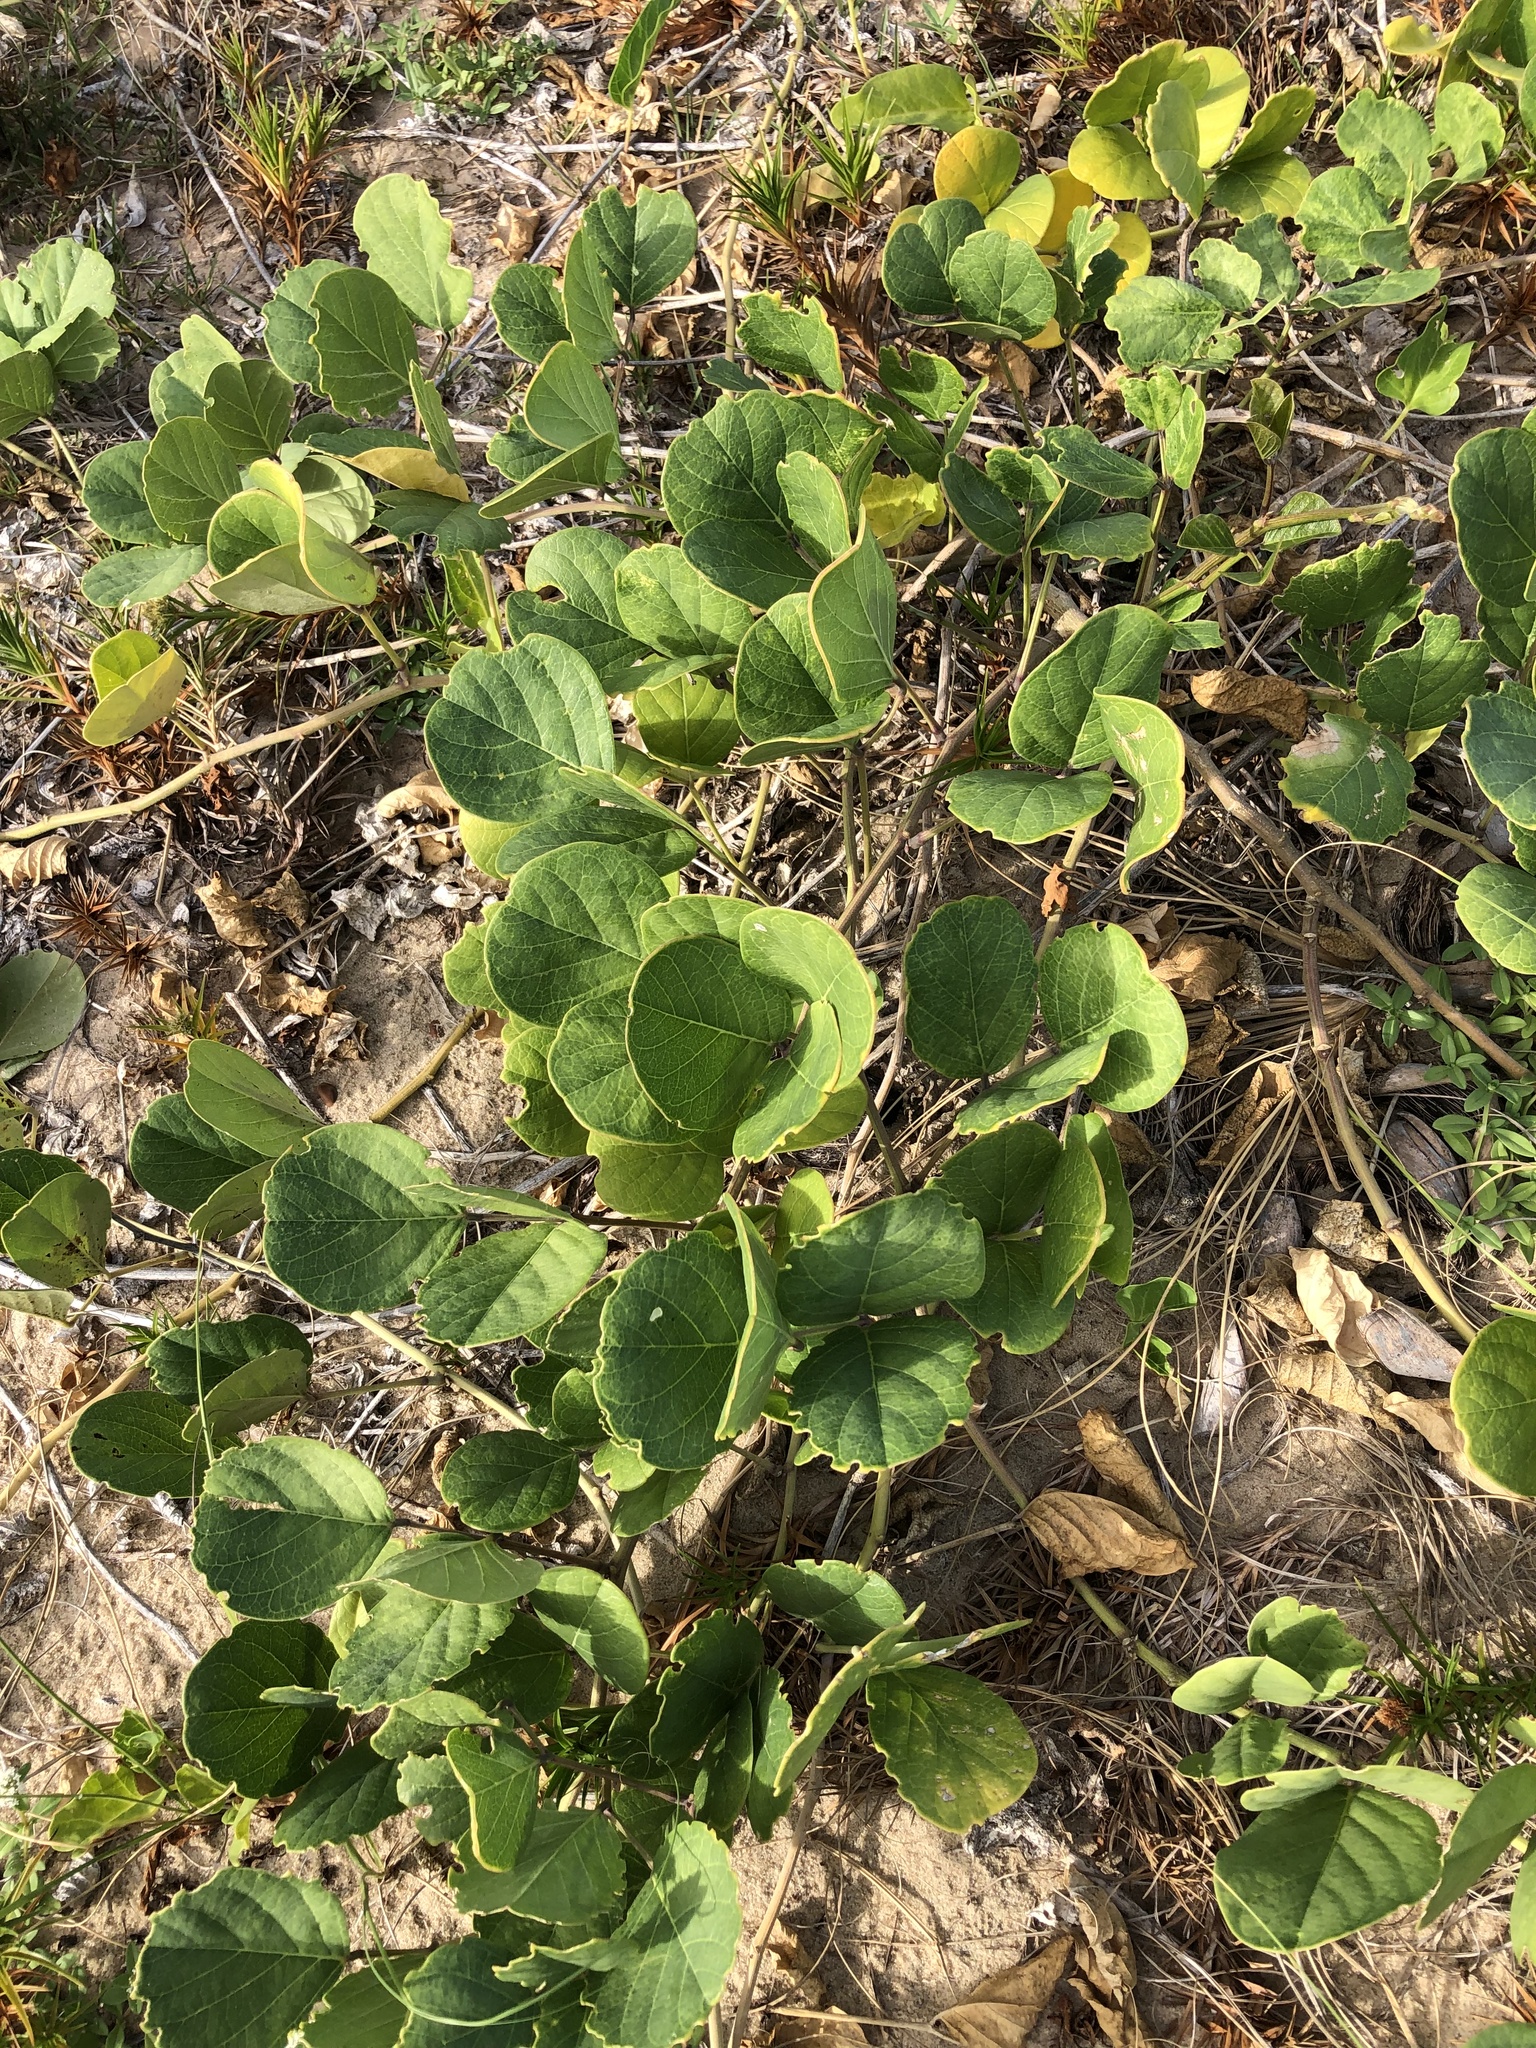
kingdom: Plantae
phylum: Tracheophyta
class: Magnoliopsida
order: Fabales
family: Fabaceae
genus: Canavalia
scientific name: Canavalia rosea
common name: Beach-bean
